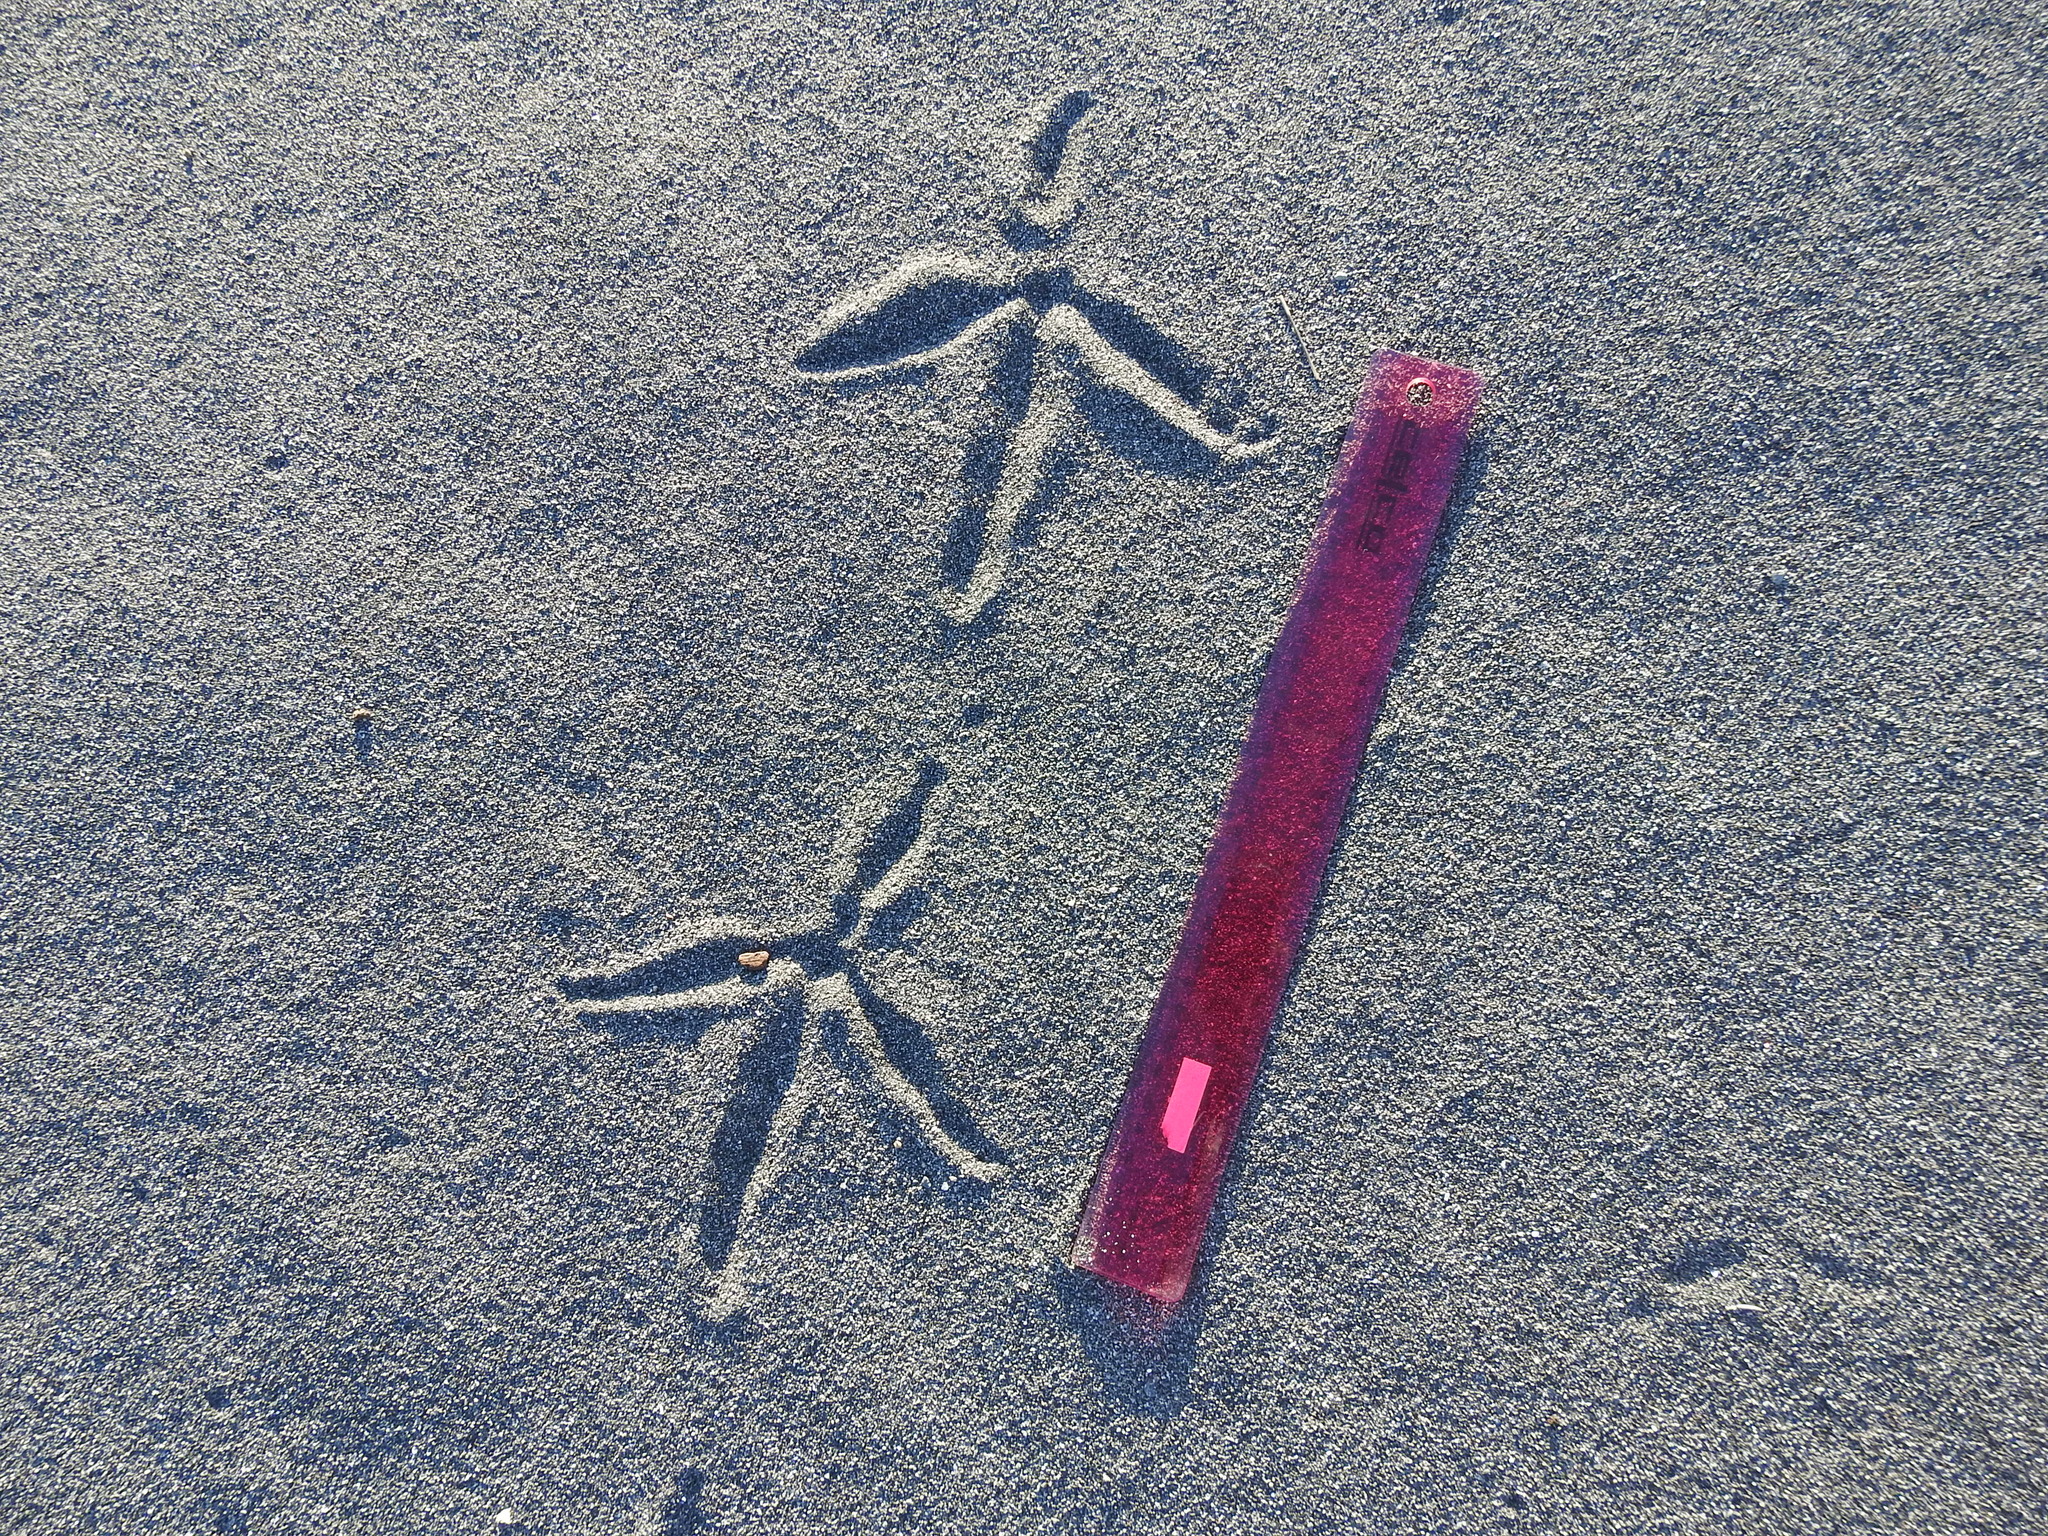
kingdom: Animalia
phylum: Chordata
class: Aves
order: Pelecaniformes
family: Ardeidae
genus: Egretta
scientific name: Egretta novaehollandiae
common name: White-faced heron
